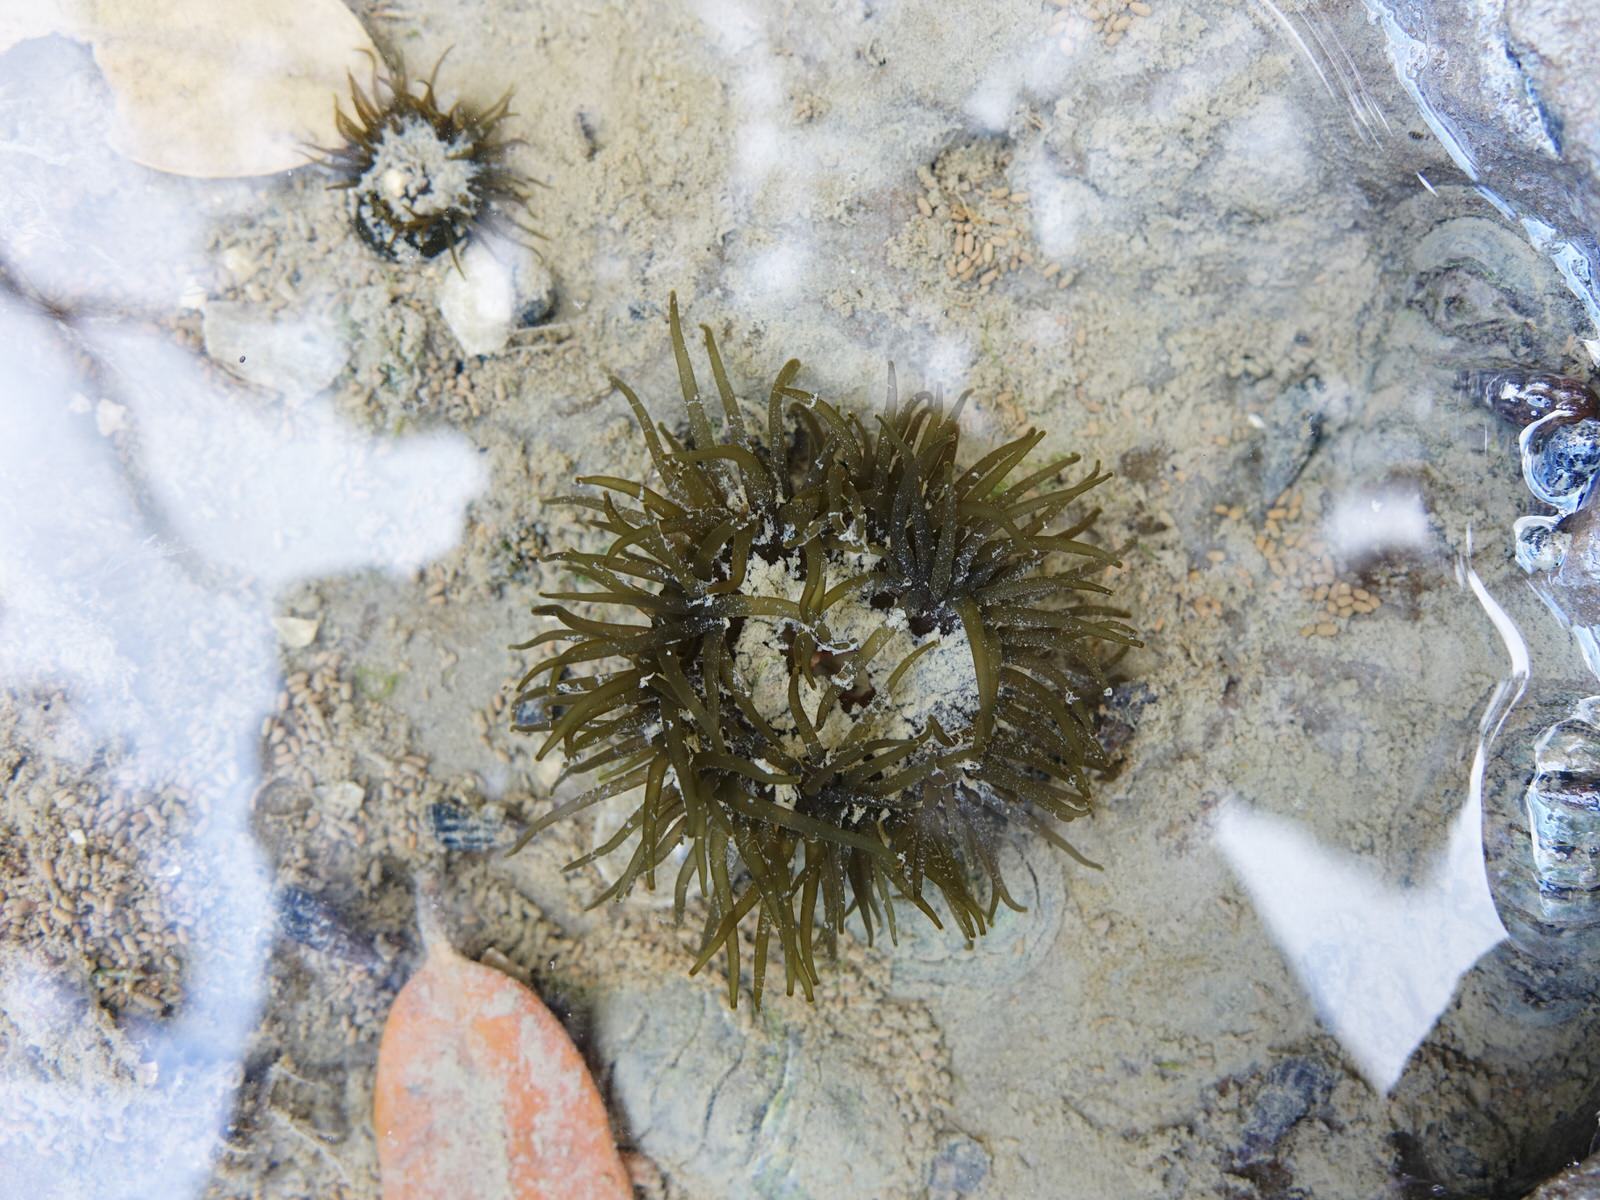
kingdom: Animalia
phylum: Cnidaria
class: Anthozoa
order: Actiniaria
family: Actiniidae
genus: Isactinia
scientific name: Isactinia olivacea
